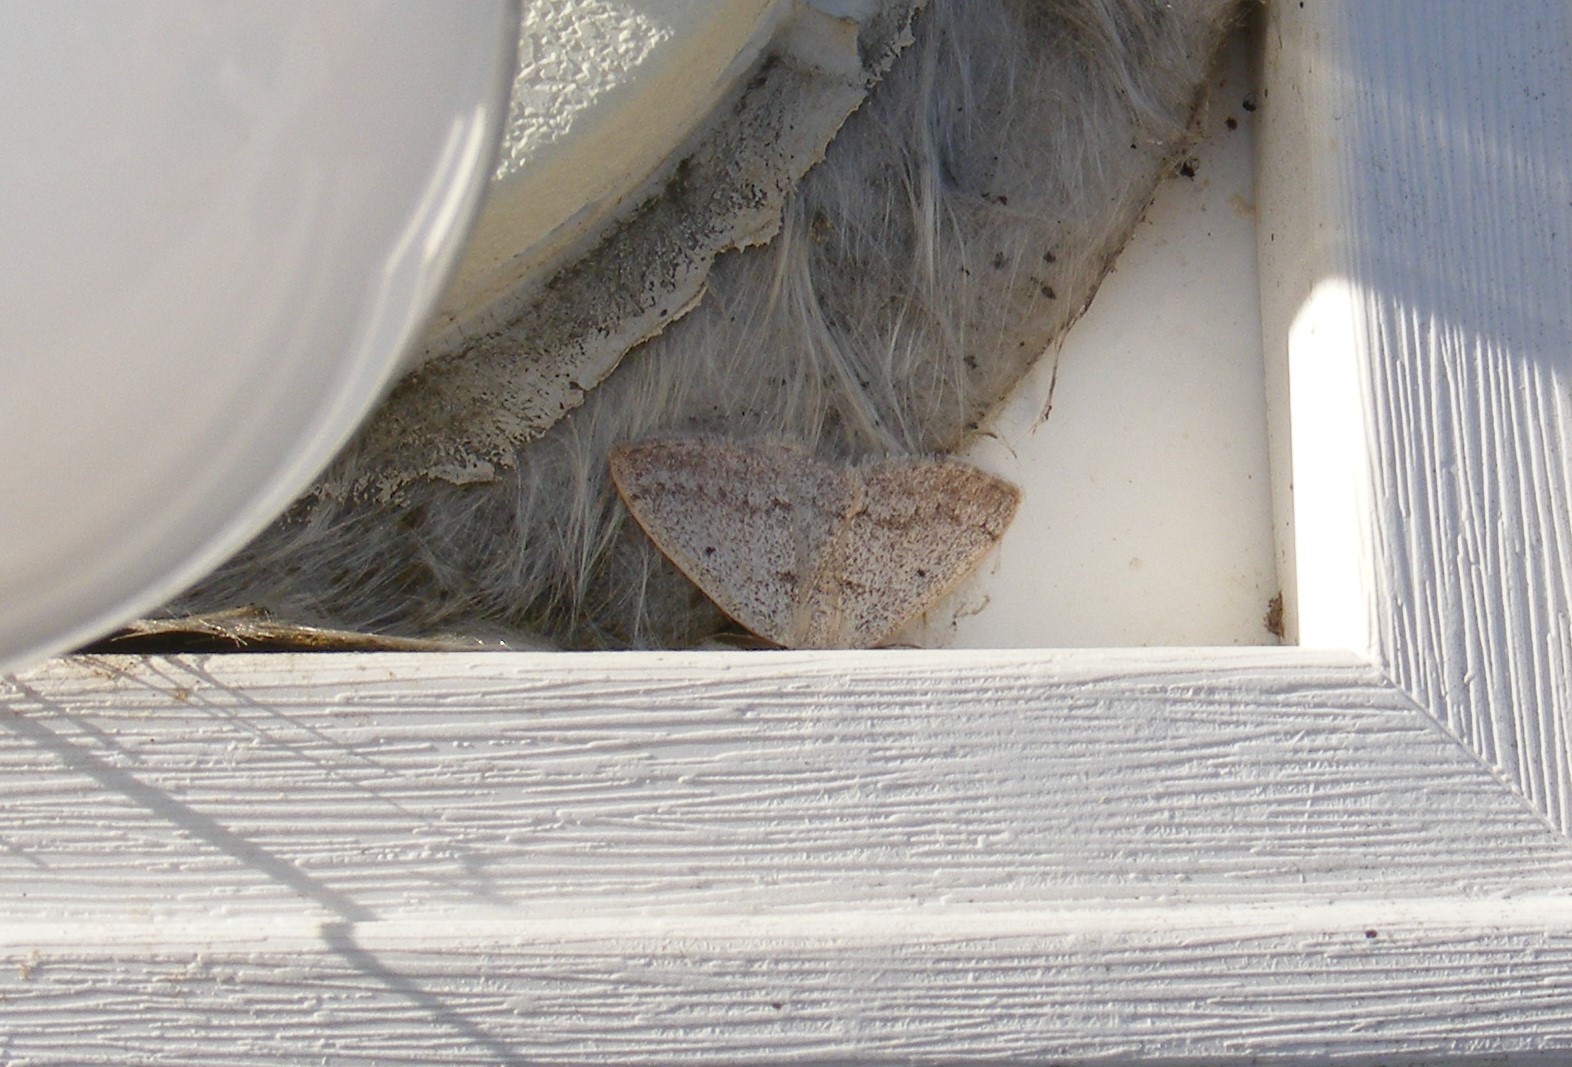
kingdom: Animalia
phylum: Arthropoda
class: Insecta
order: Lepidoptera
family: Geometridae
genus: Lomographa
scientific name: Lomographa glomeraria
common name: Gray spring moth
